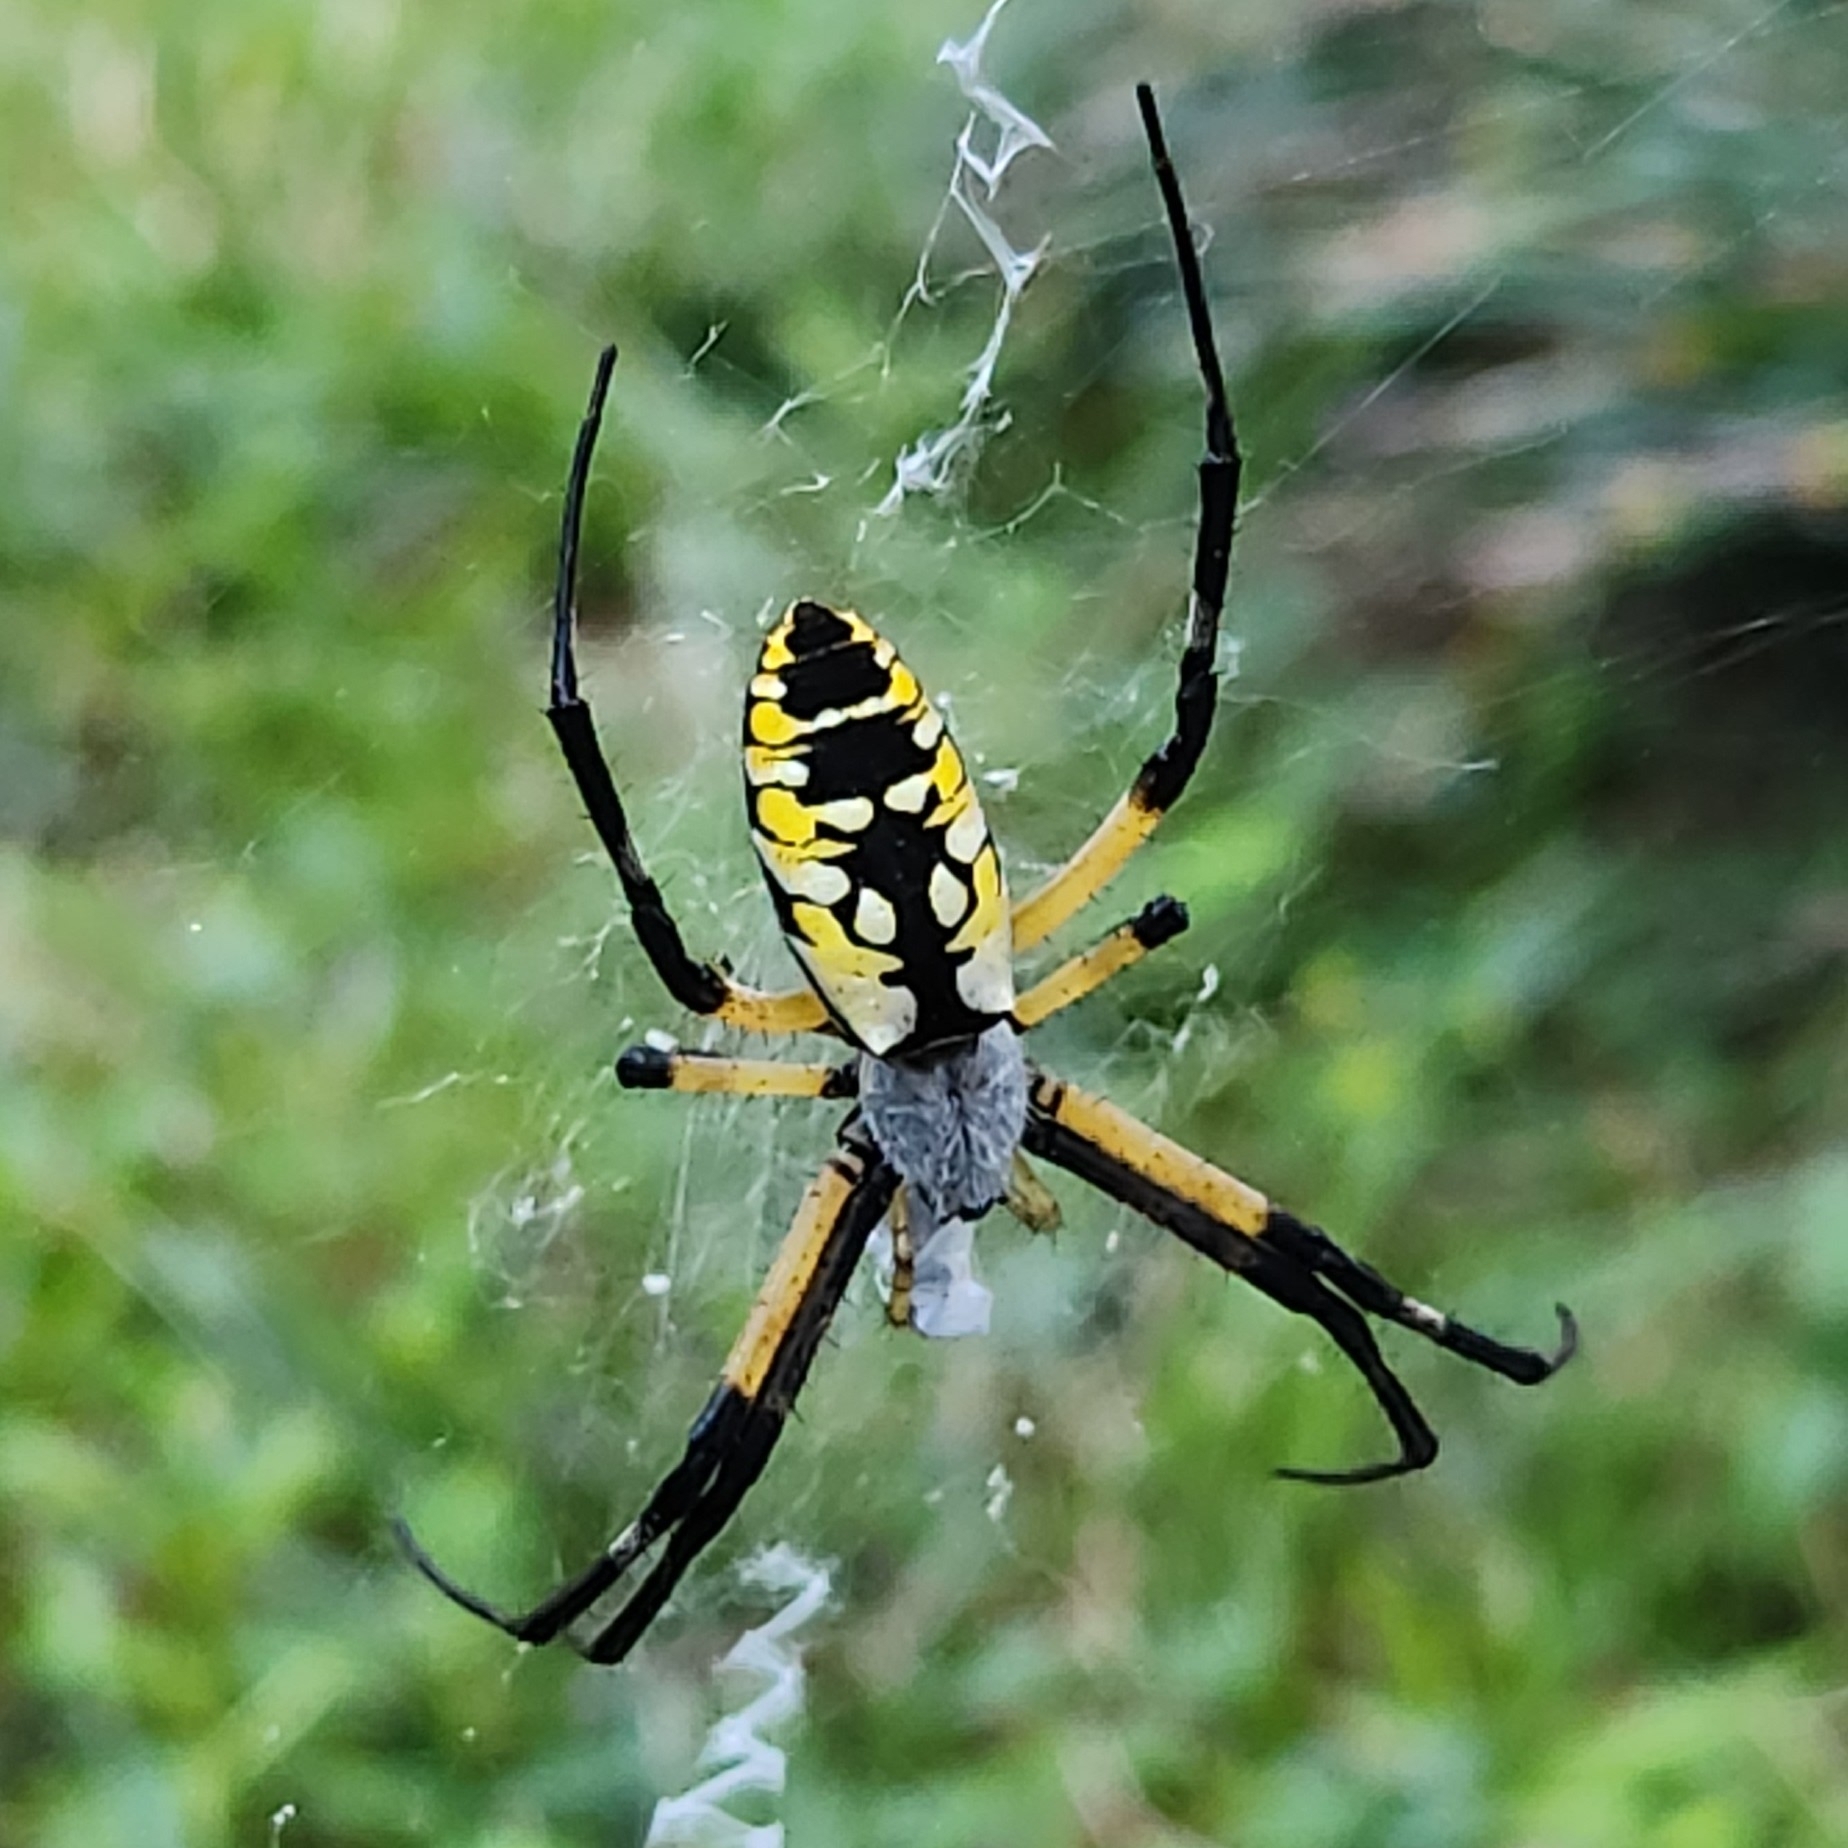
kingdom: Animalia
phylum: Arthropoda
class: Arachnida
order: Araneae
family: Araneidae
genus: Argiope
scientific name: Argiope aurantia
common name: Orb weavers
